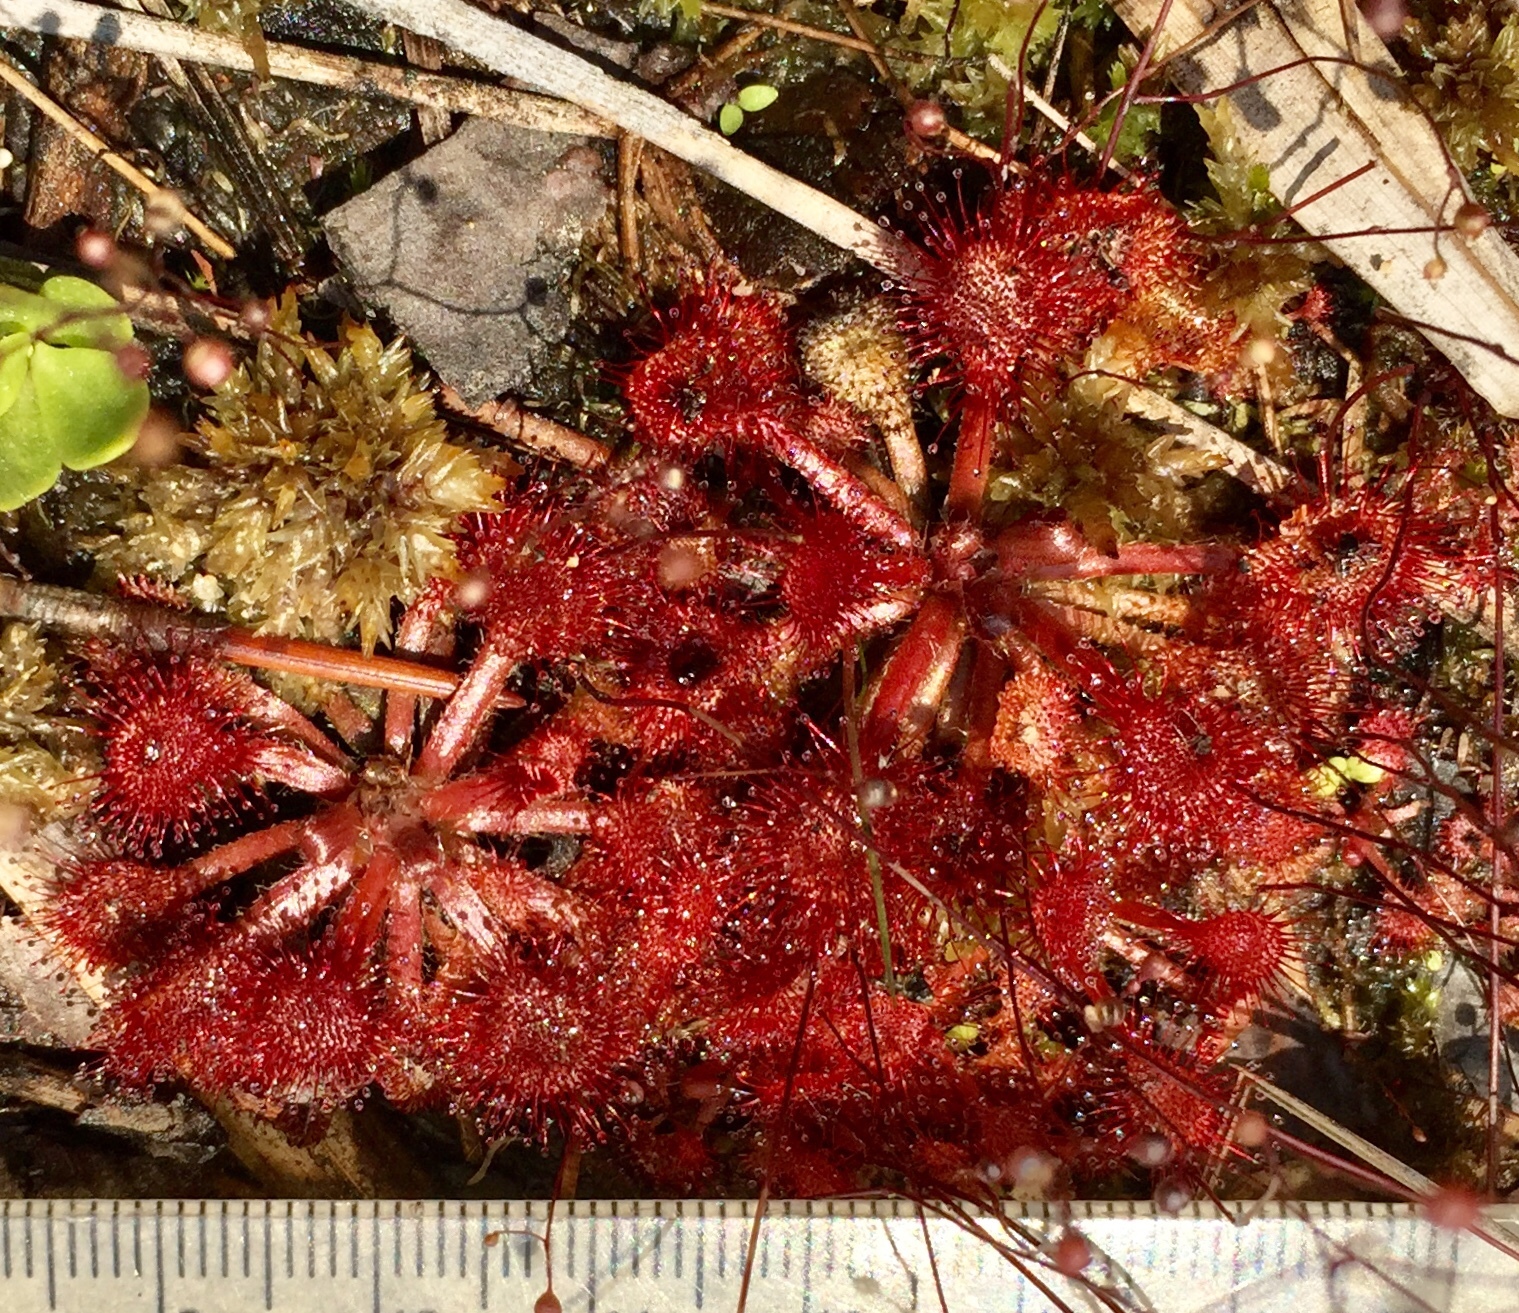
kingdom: Plantae
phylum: Tracheophyta
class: Magnoliopsida
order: Caryophyllales
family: Droseraceae
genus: Drosera
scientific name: Drosera capillaris
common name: Pink sundew
